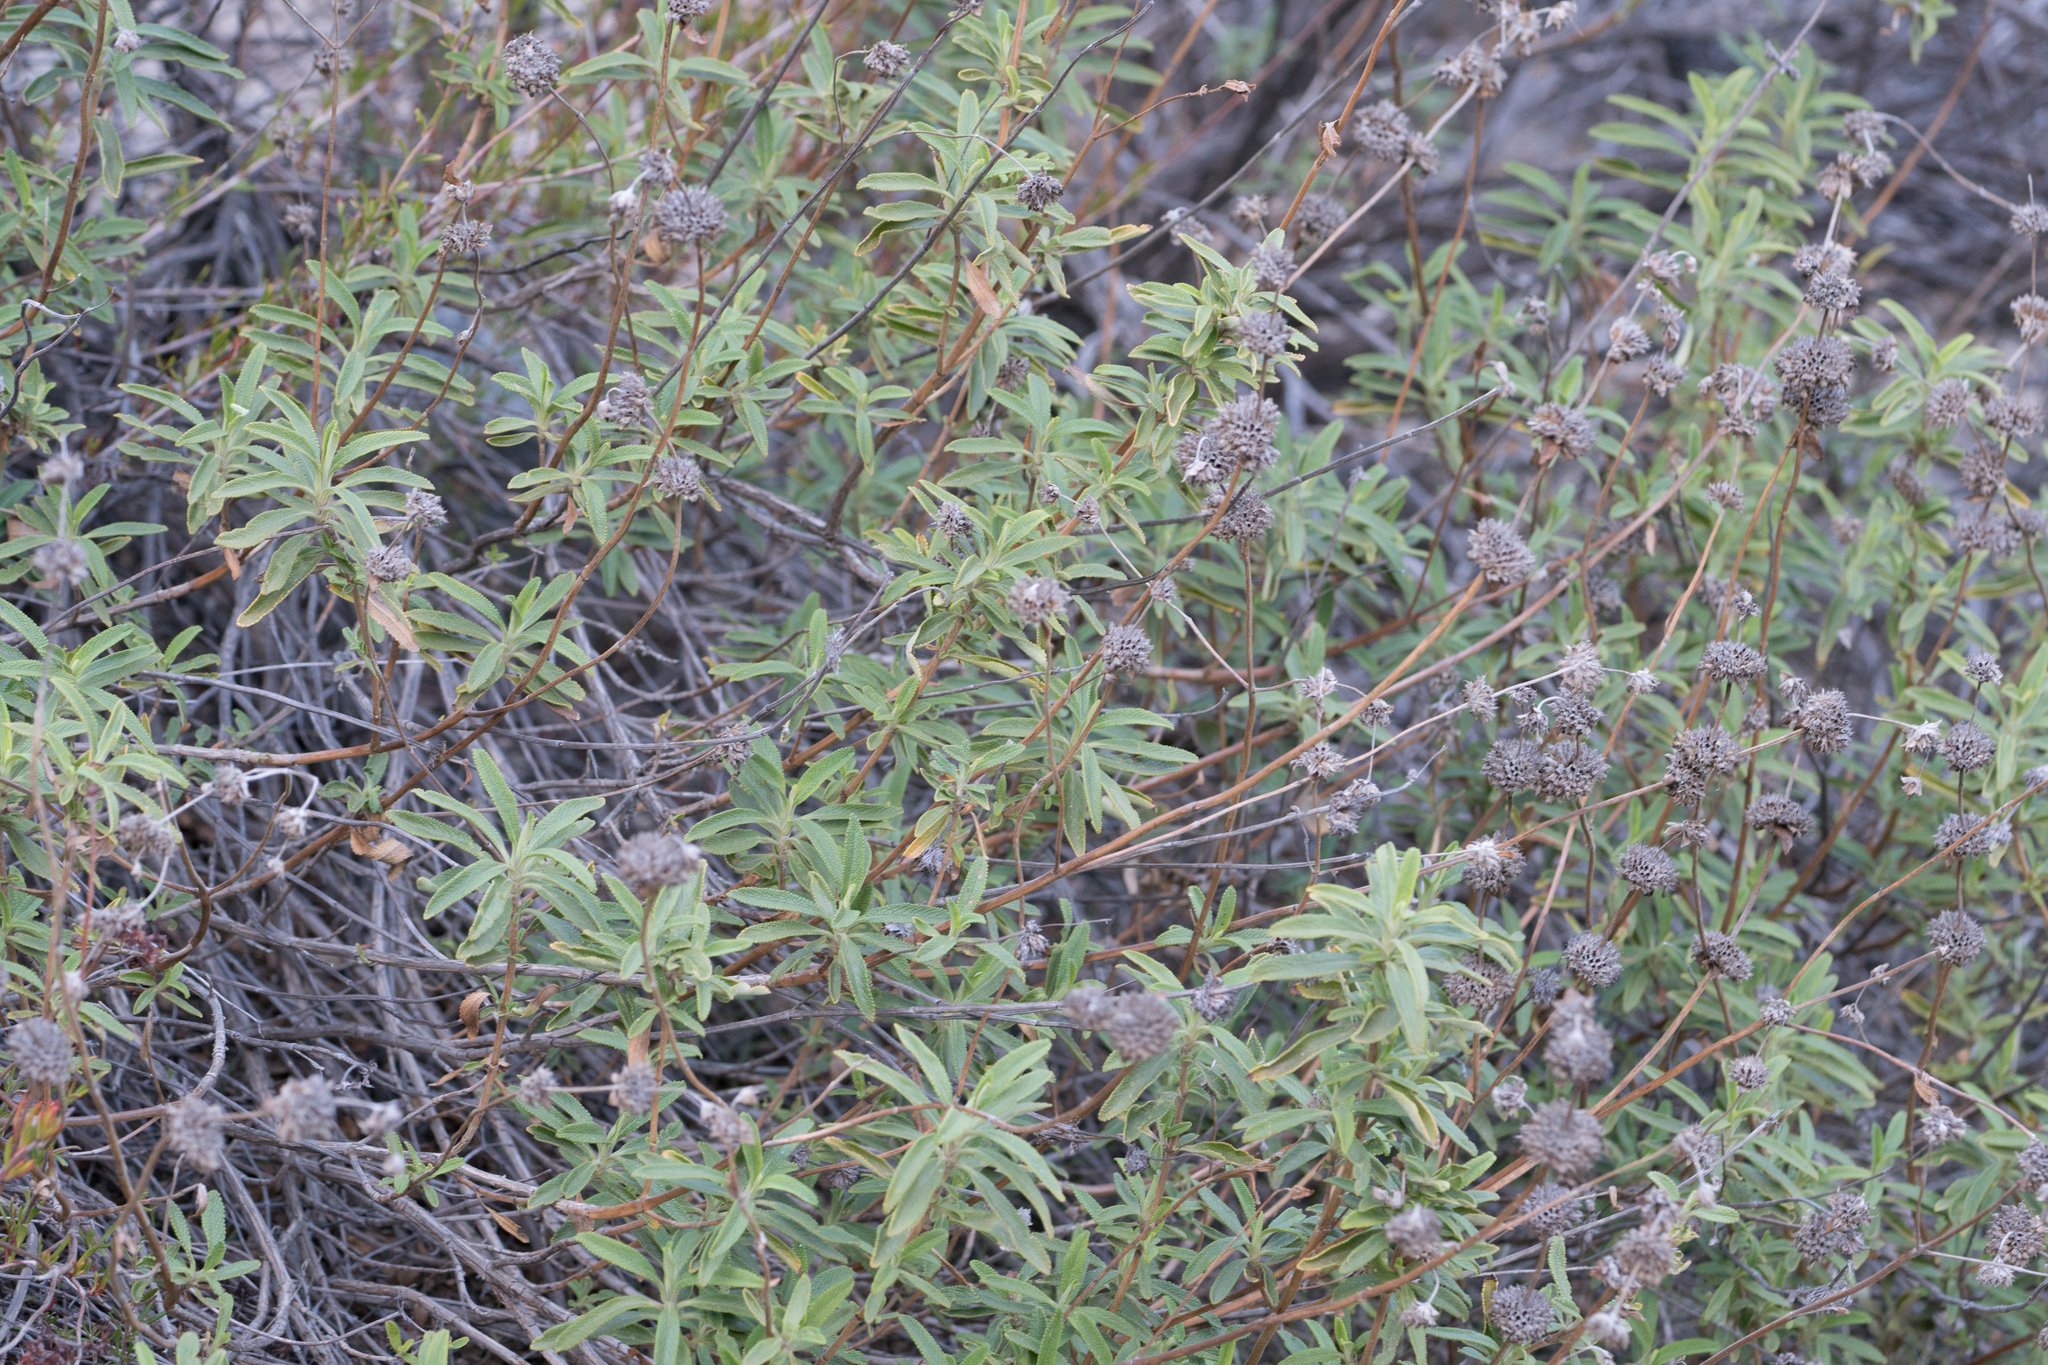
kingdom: Plantae
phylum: Tracheophyta
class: Magnoliopsida
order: Lamiales
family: Lamiaceae
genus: Salvia
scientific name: Salvia mellifera
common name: Black sage
